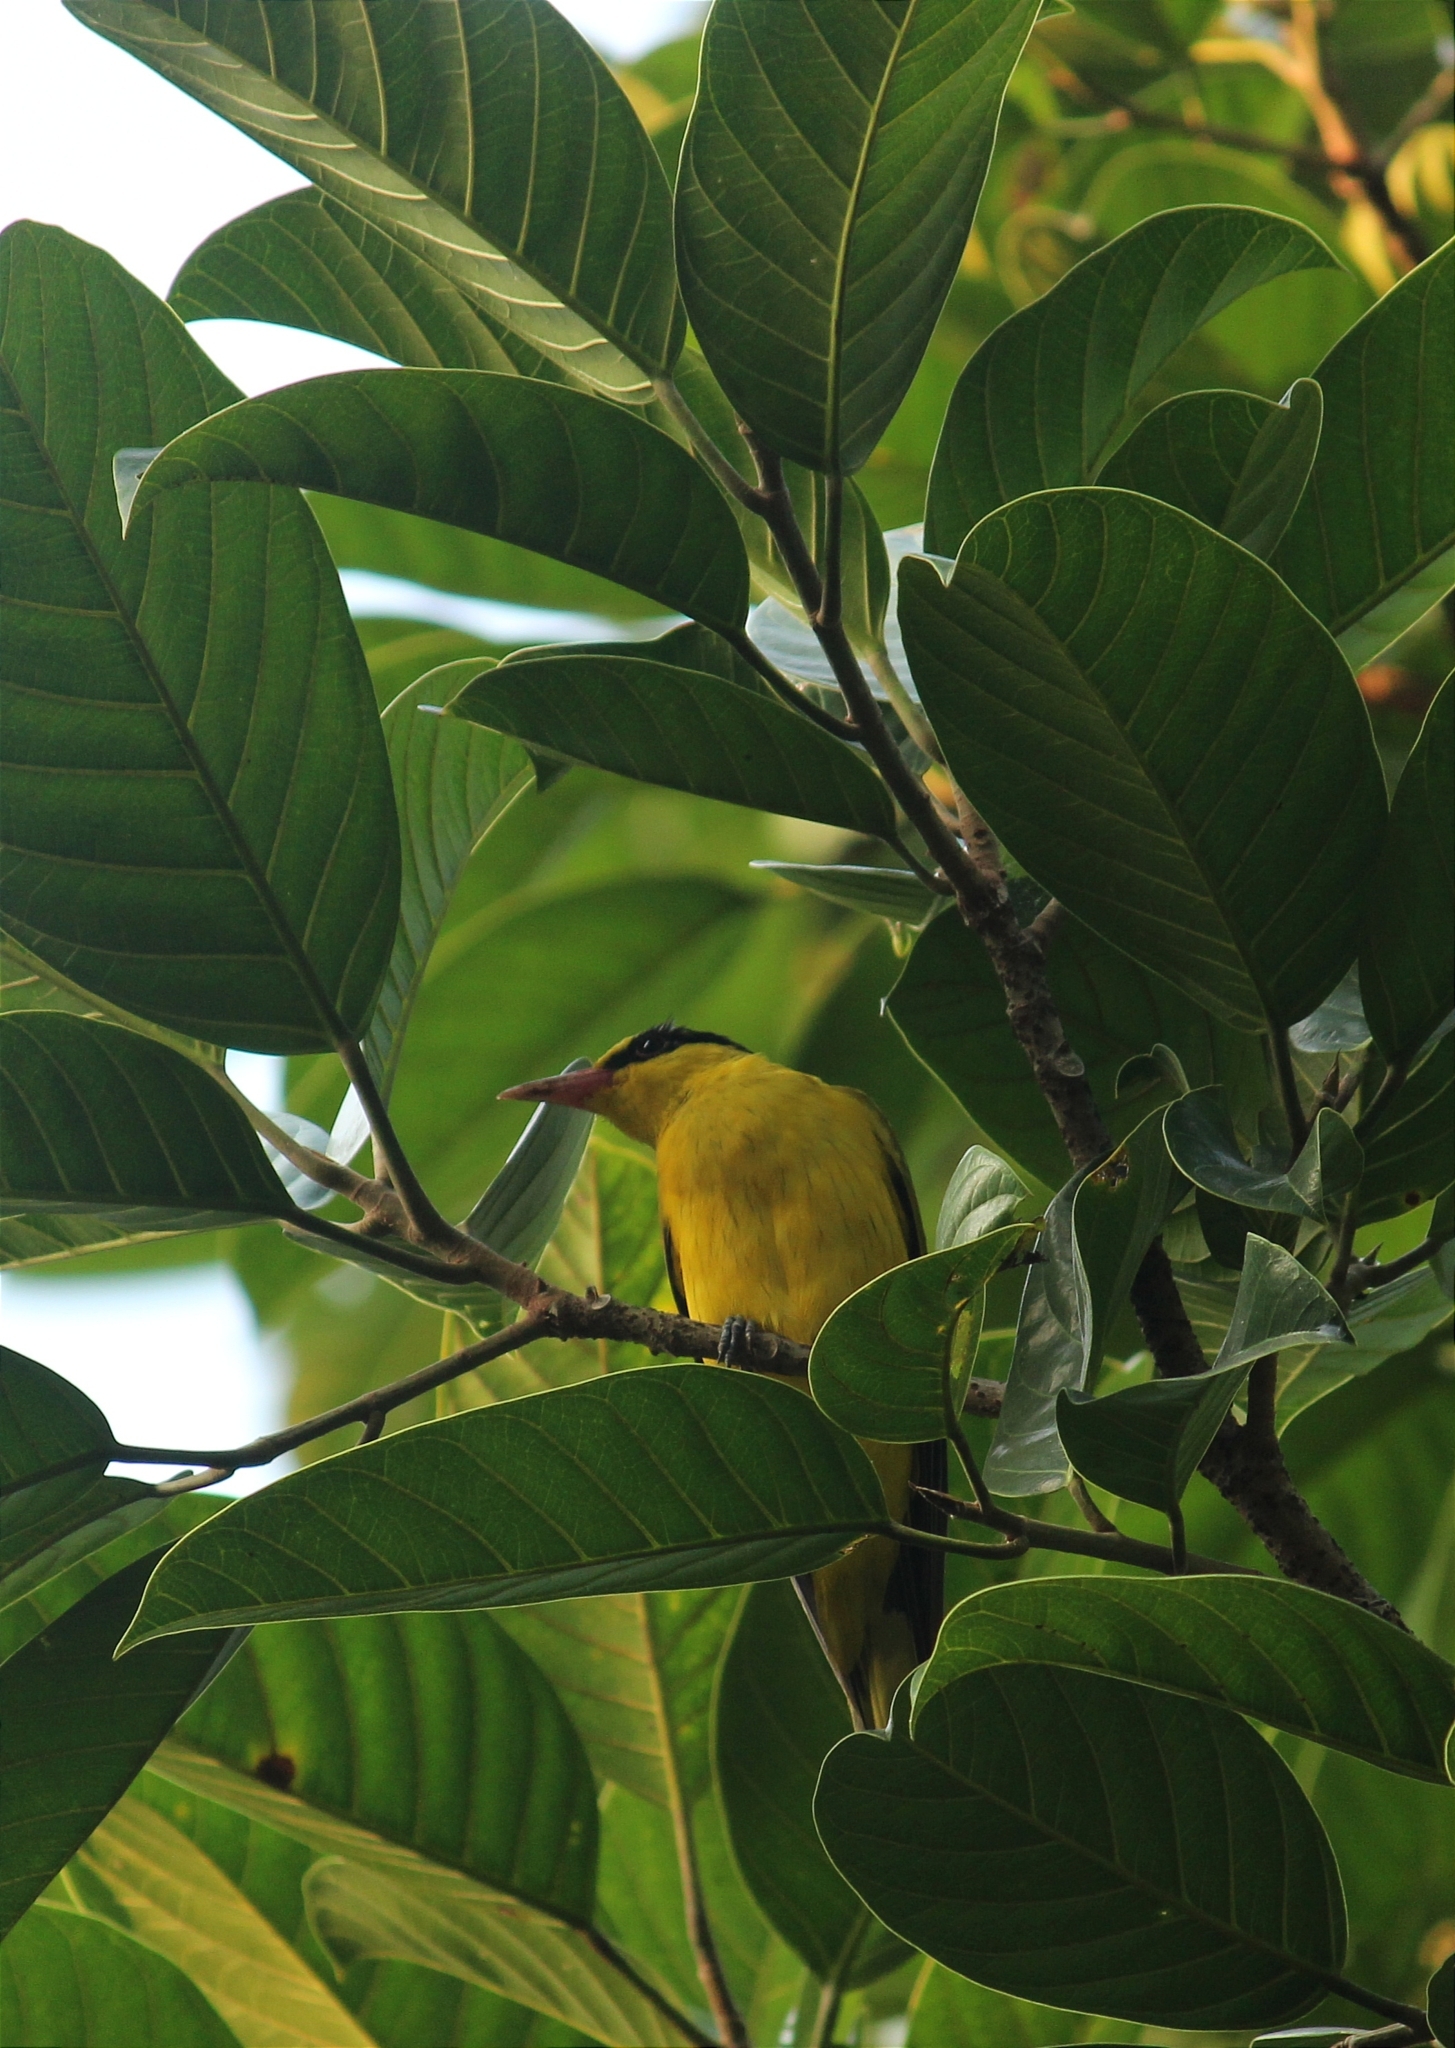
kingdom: Animalia
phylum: Chordata
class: Aves
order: Passeriformes
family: Oriolidae
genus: Oriolus
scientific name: Oriolus chinensis
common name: Black-naped oriole
